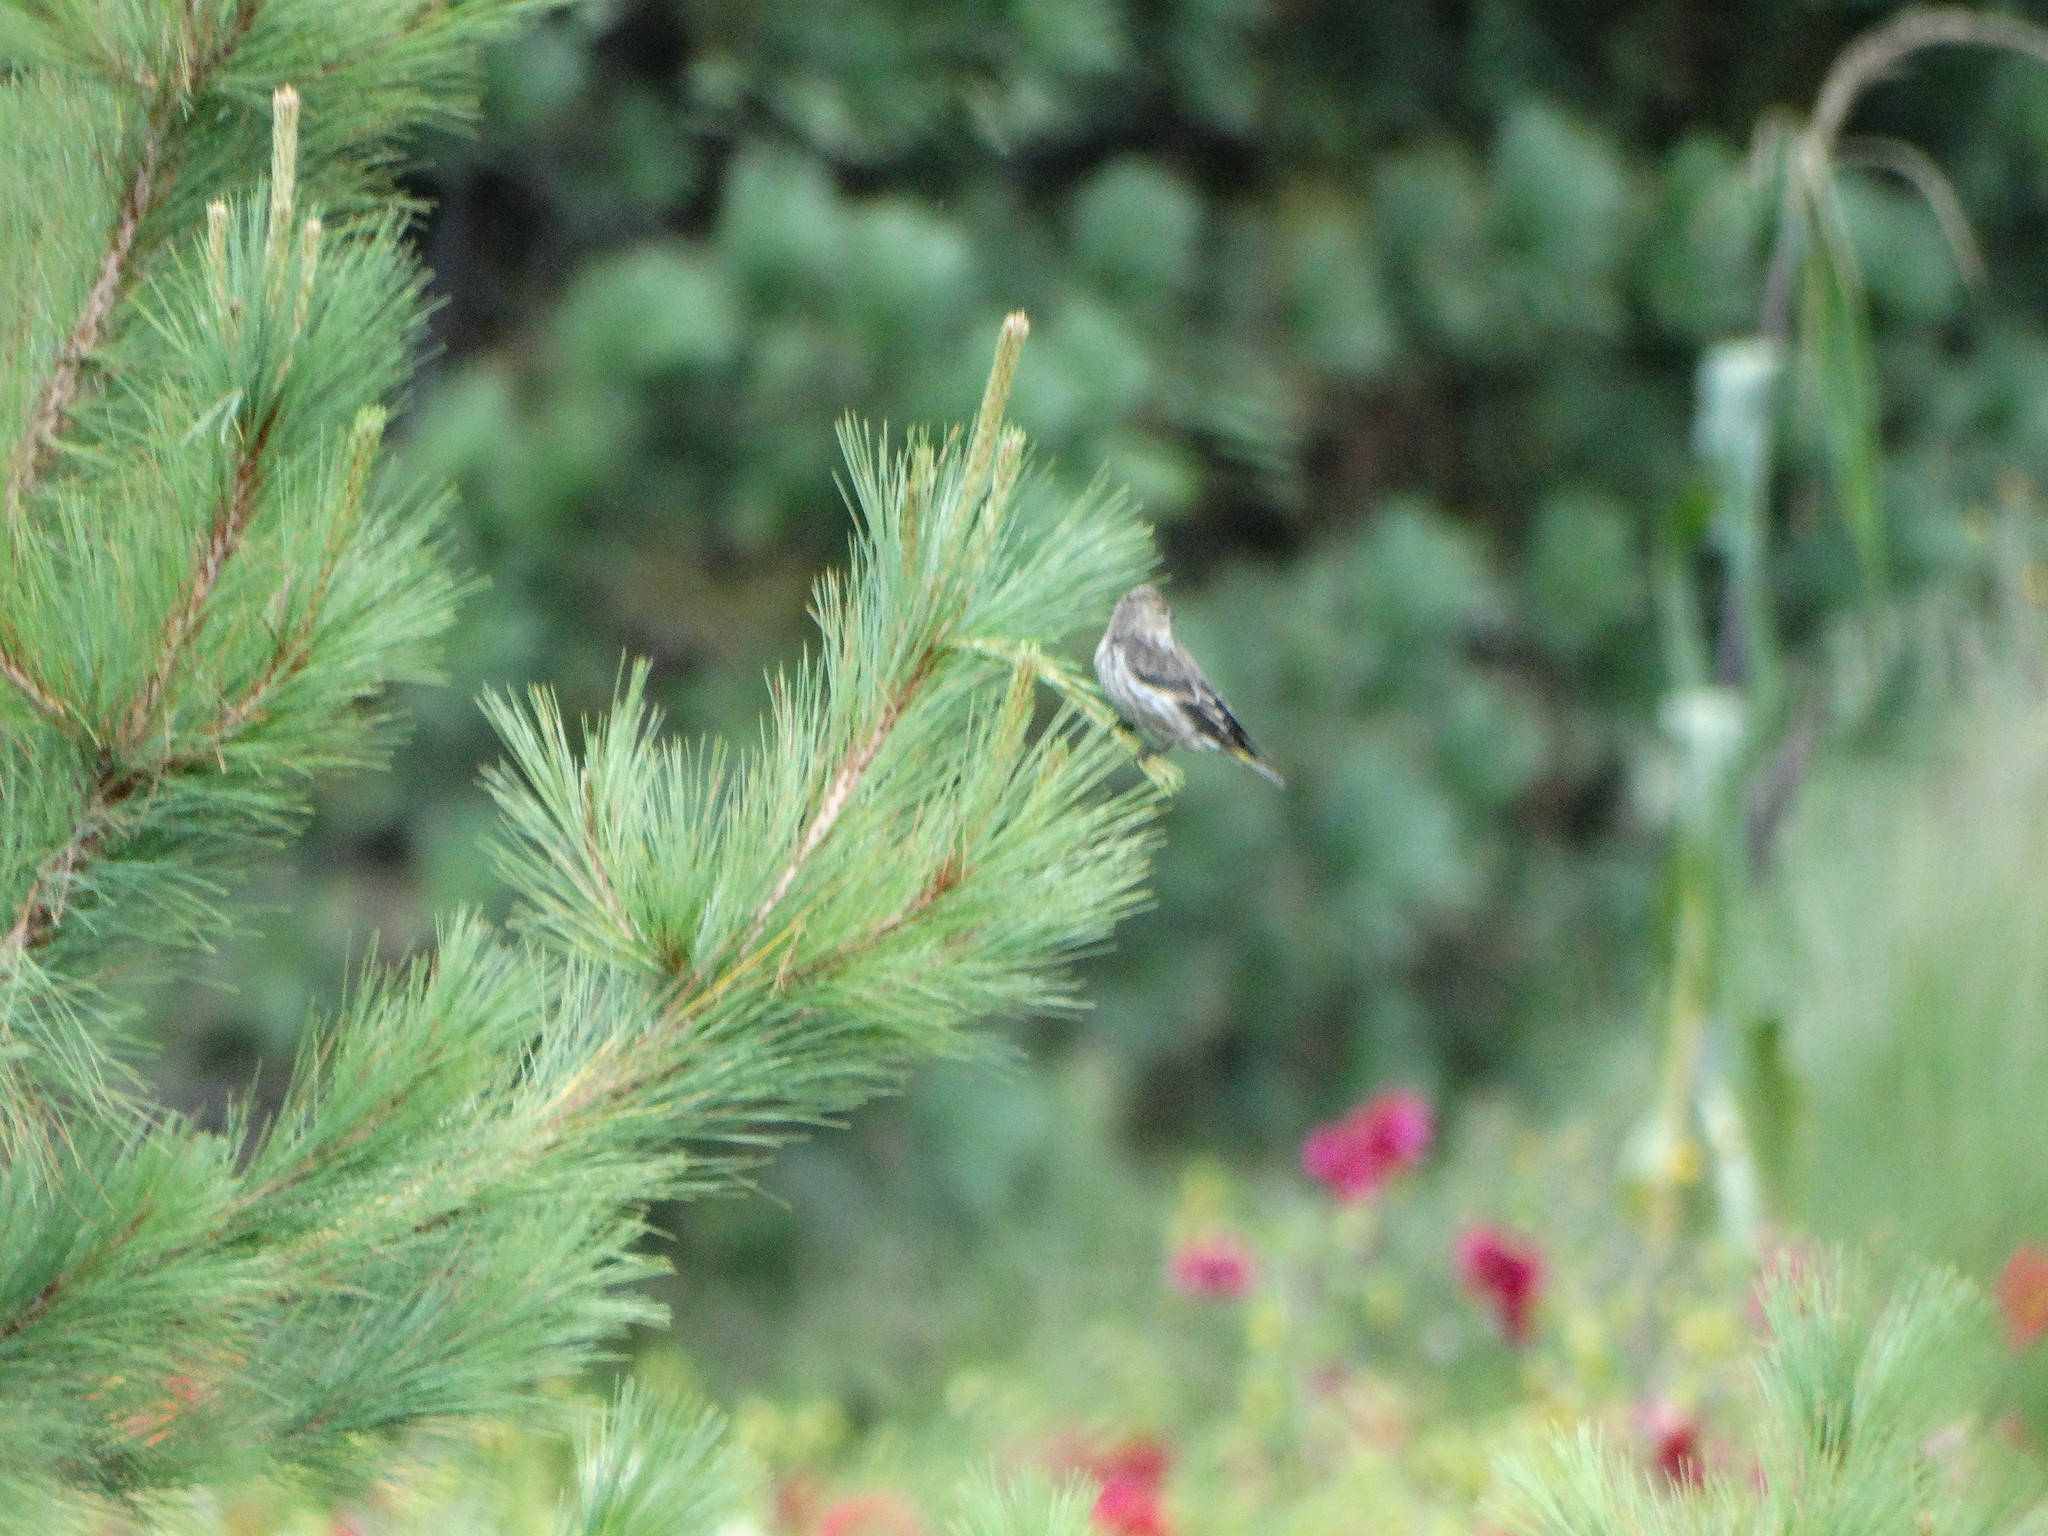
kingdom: Animalia
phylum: Chordata
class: Aves
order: Passeriformes
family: Fringillidae
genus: Spinus
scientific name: Spinus pinus
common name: Pine siskin
